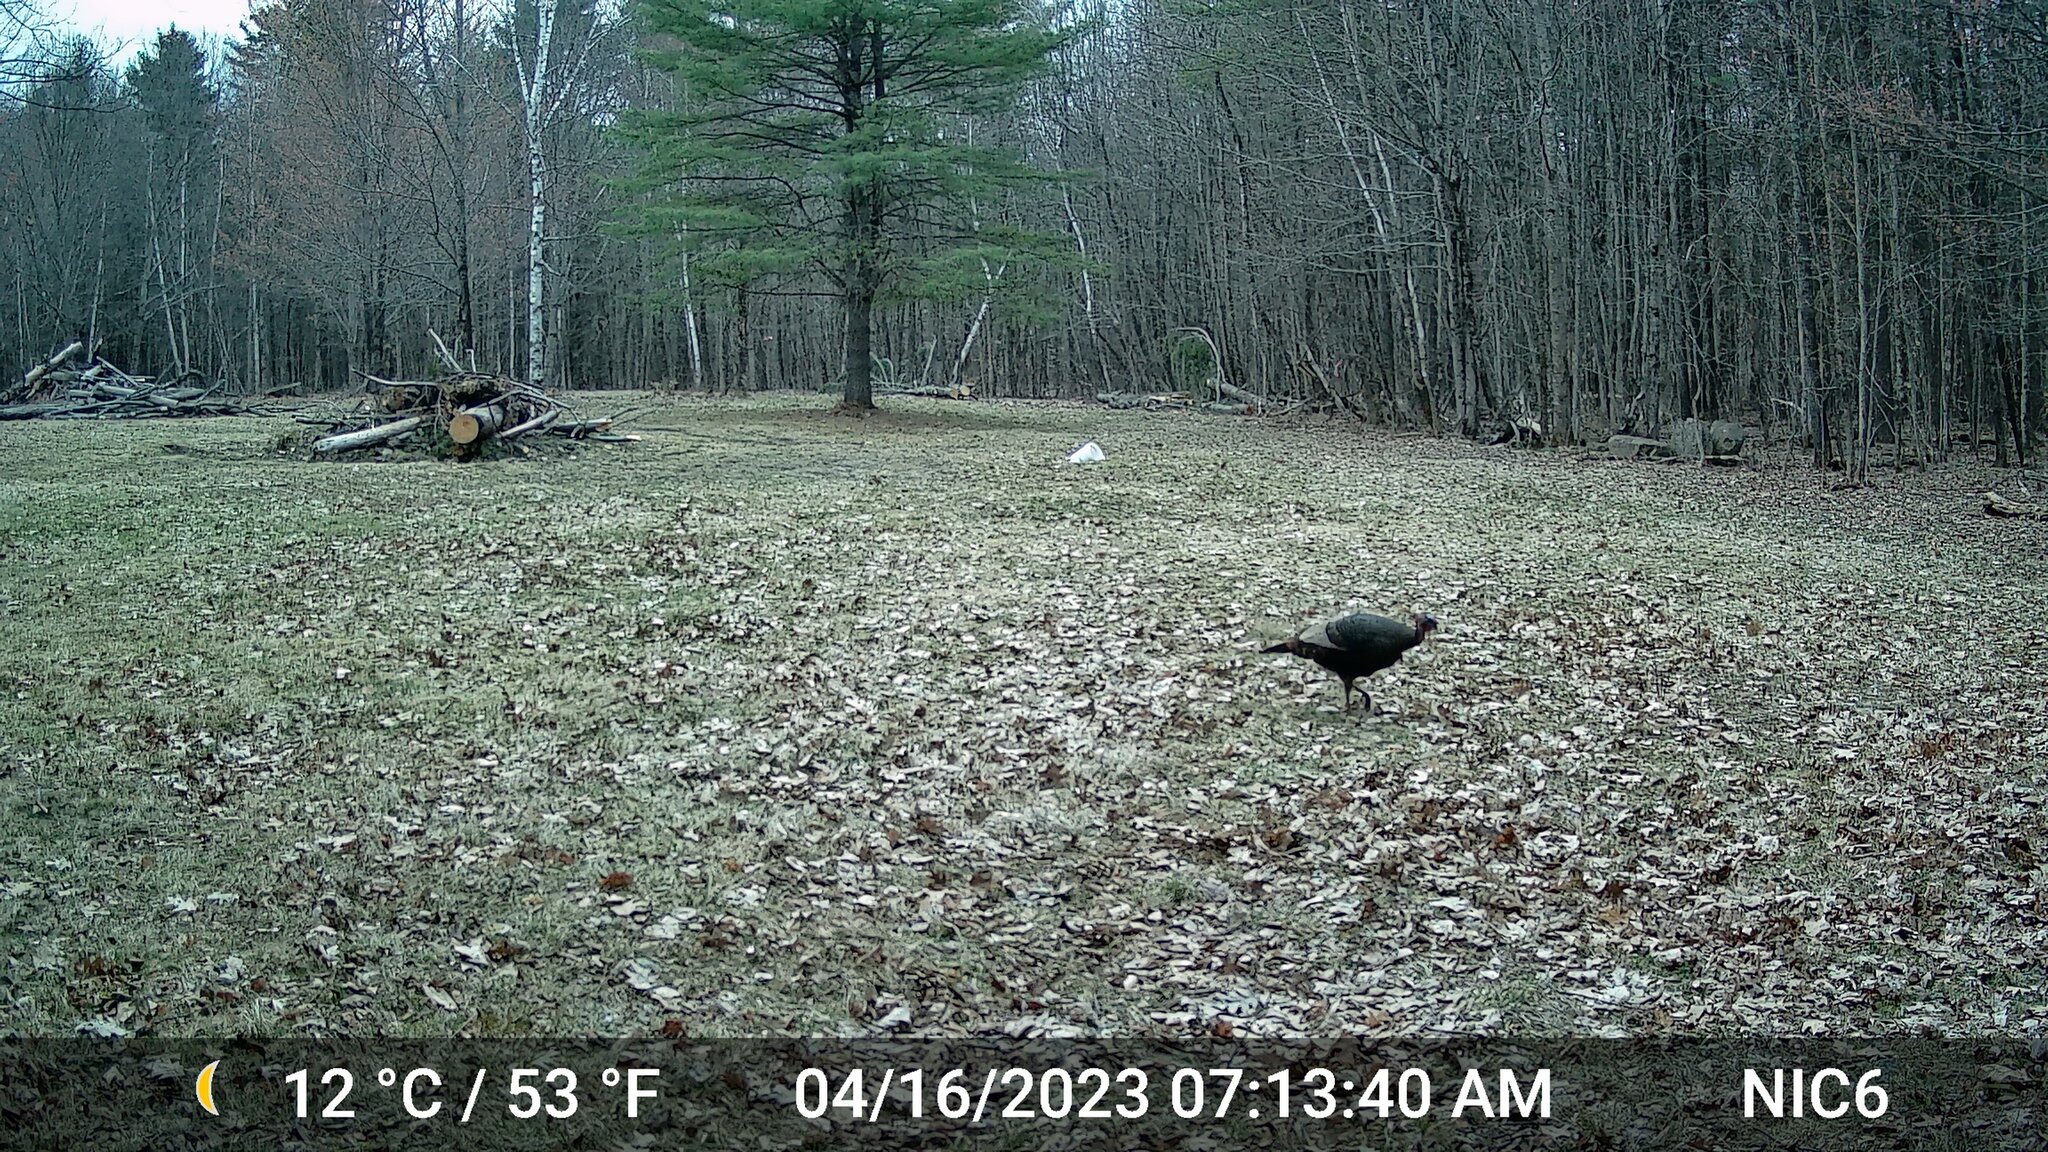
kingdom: Animalia
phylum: Chordata
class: Aves
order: Galliformes
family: Phasianidae
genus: Meleagris
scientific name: Meleagris gallopavo
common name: Wild turkey
